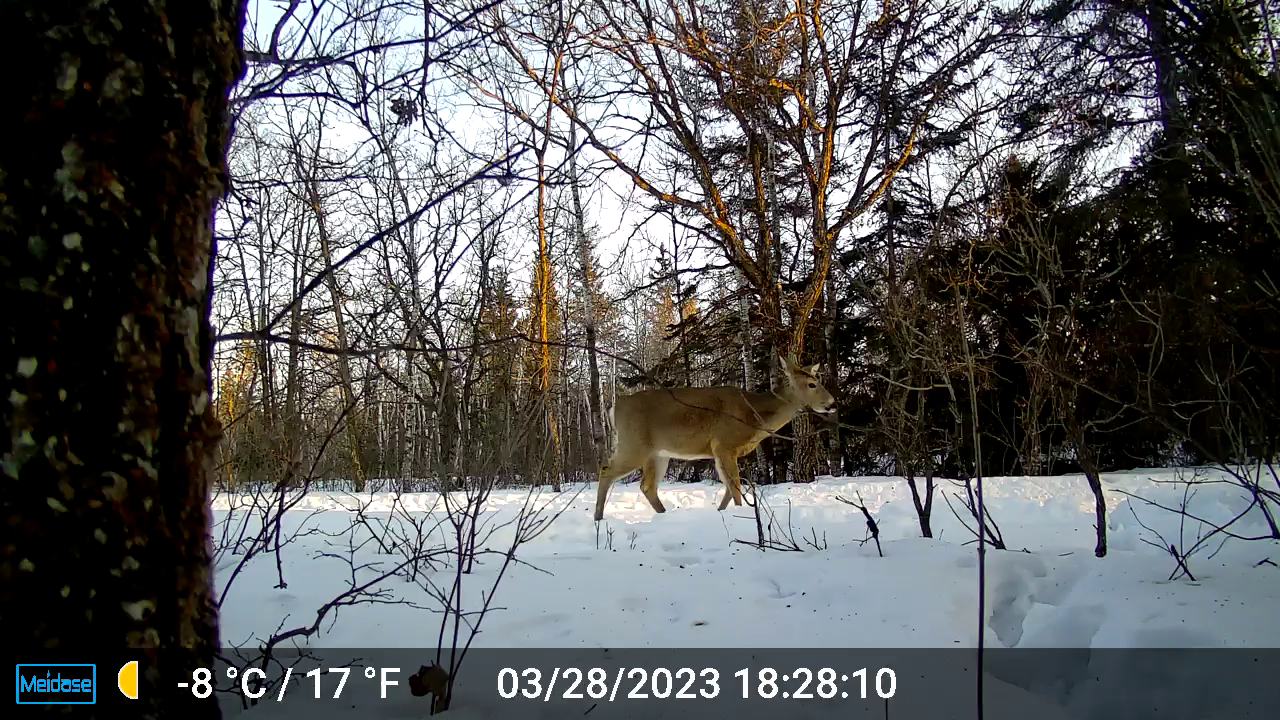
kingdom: Animalia
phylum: Chordata
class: Mammalia
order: Artiodactyla
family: Cervidae
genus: Odocoileus
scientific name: Odocoileus virginianus
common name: White-tailed deer
